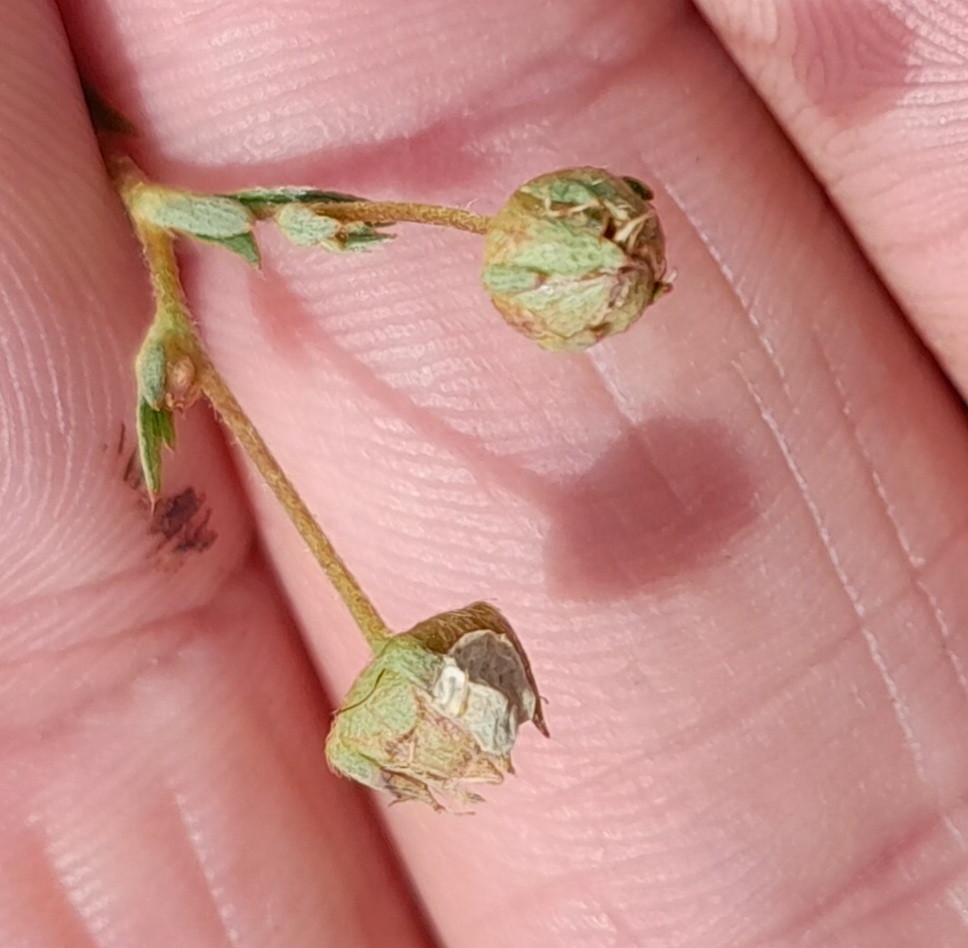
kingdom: Plantae
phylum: Tracheophyta
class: Magnoliopsida
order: Rosales
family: Rosaceae
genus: Sibbaldia
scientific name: Sibbaldia tridentata
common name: Three-toothed cinquefoil
